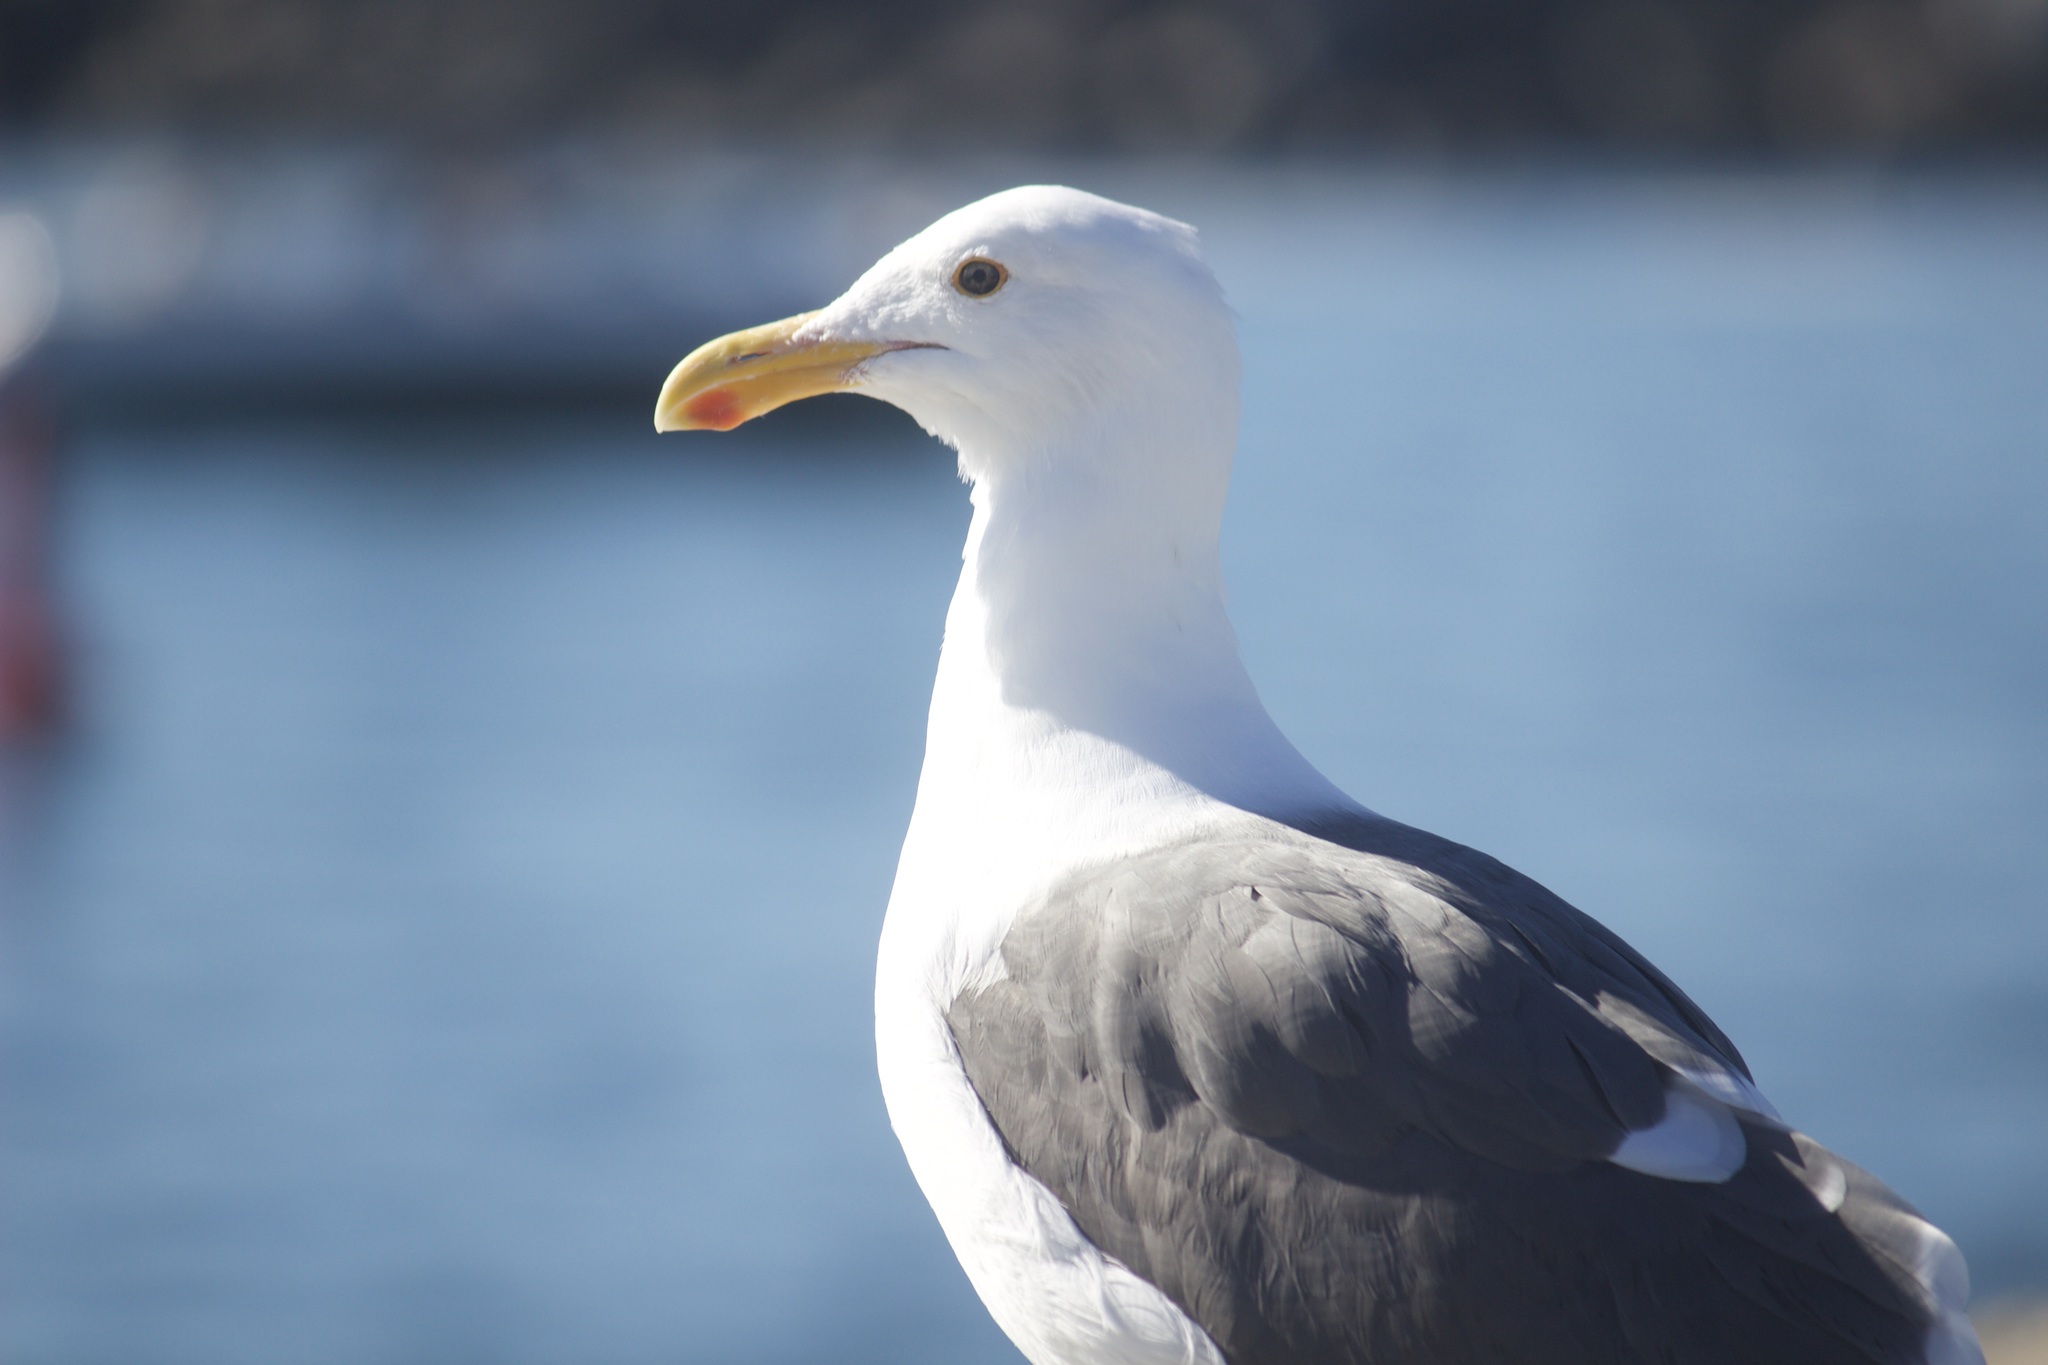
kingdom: Animalia
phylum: Chordata
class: Aves
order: Charadriiformes
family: Laridae
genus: Larus
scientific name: Larus occidentalis
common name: Western gull
